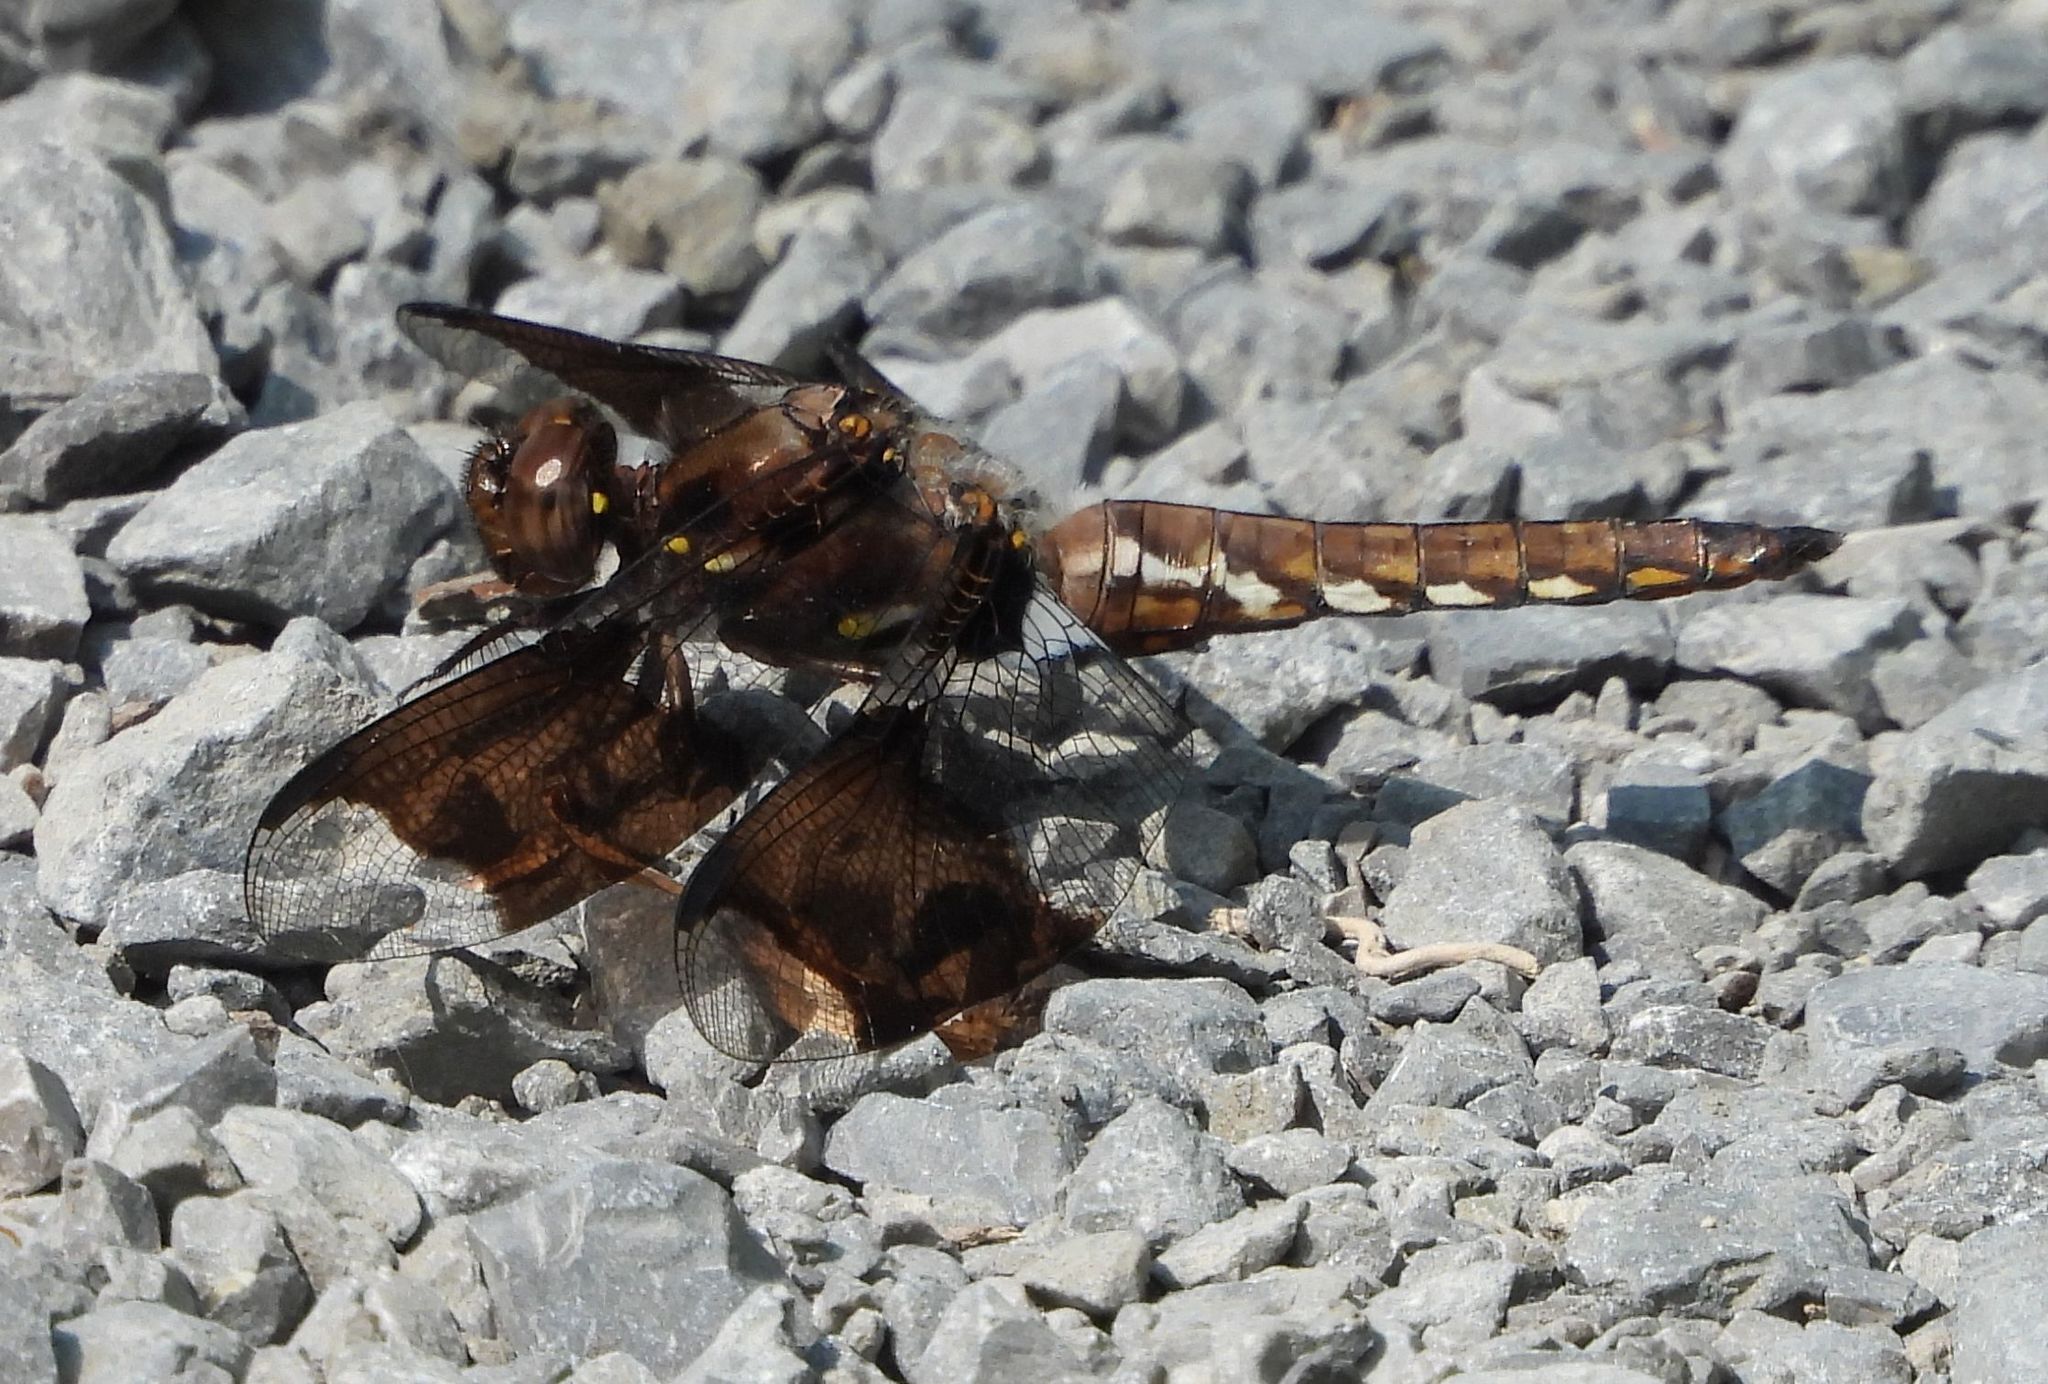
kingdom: Animalia
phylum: Arthropoda
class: Insecta
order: Odonata
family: Libellulidae
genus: Plathemis
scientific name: Plathemis lydia
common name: Common whitetail
